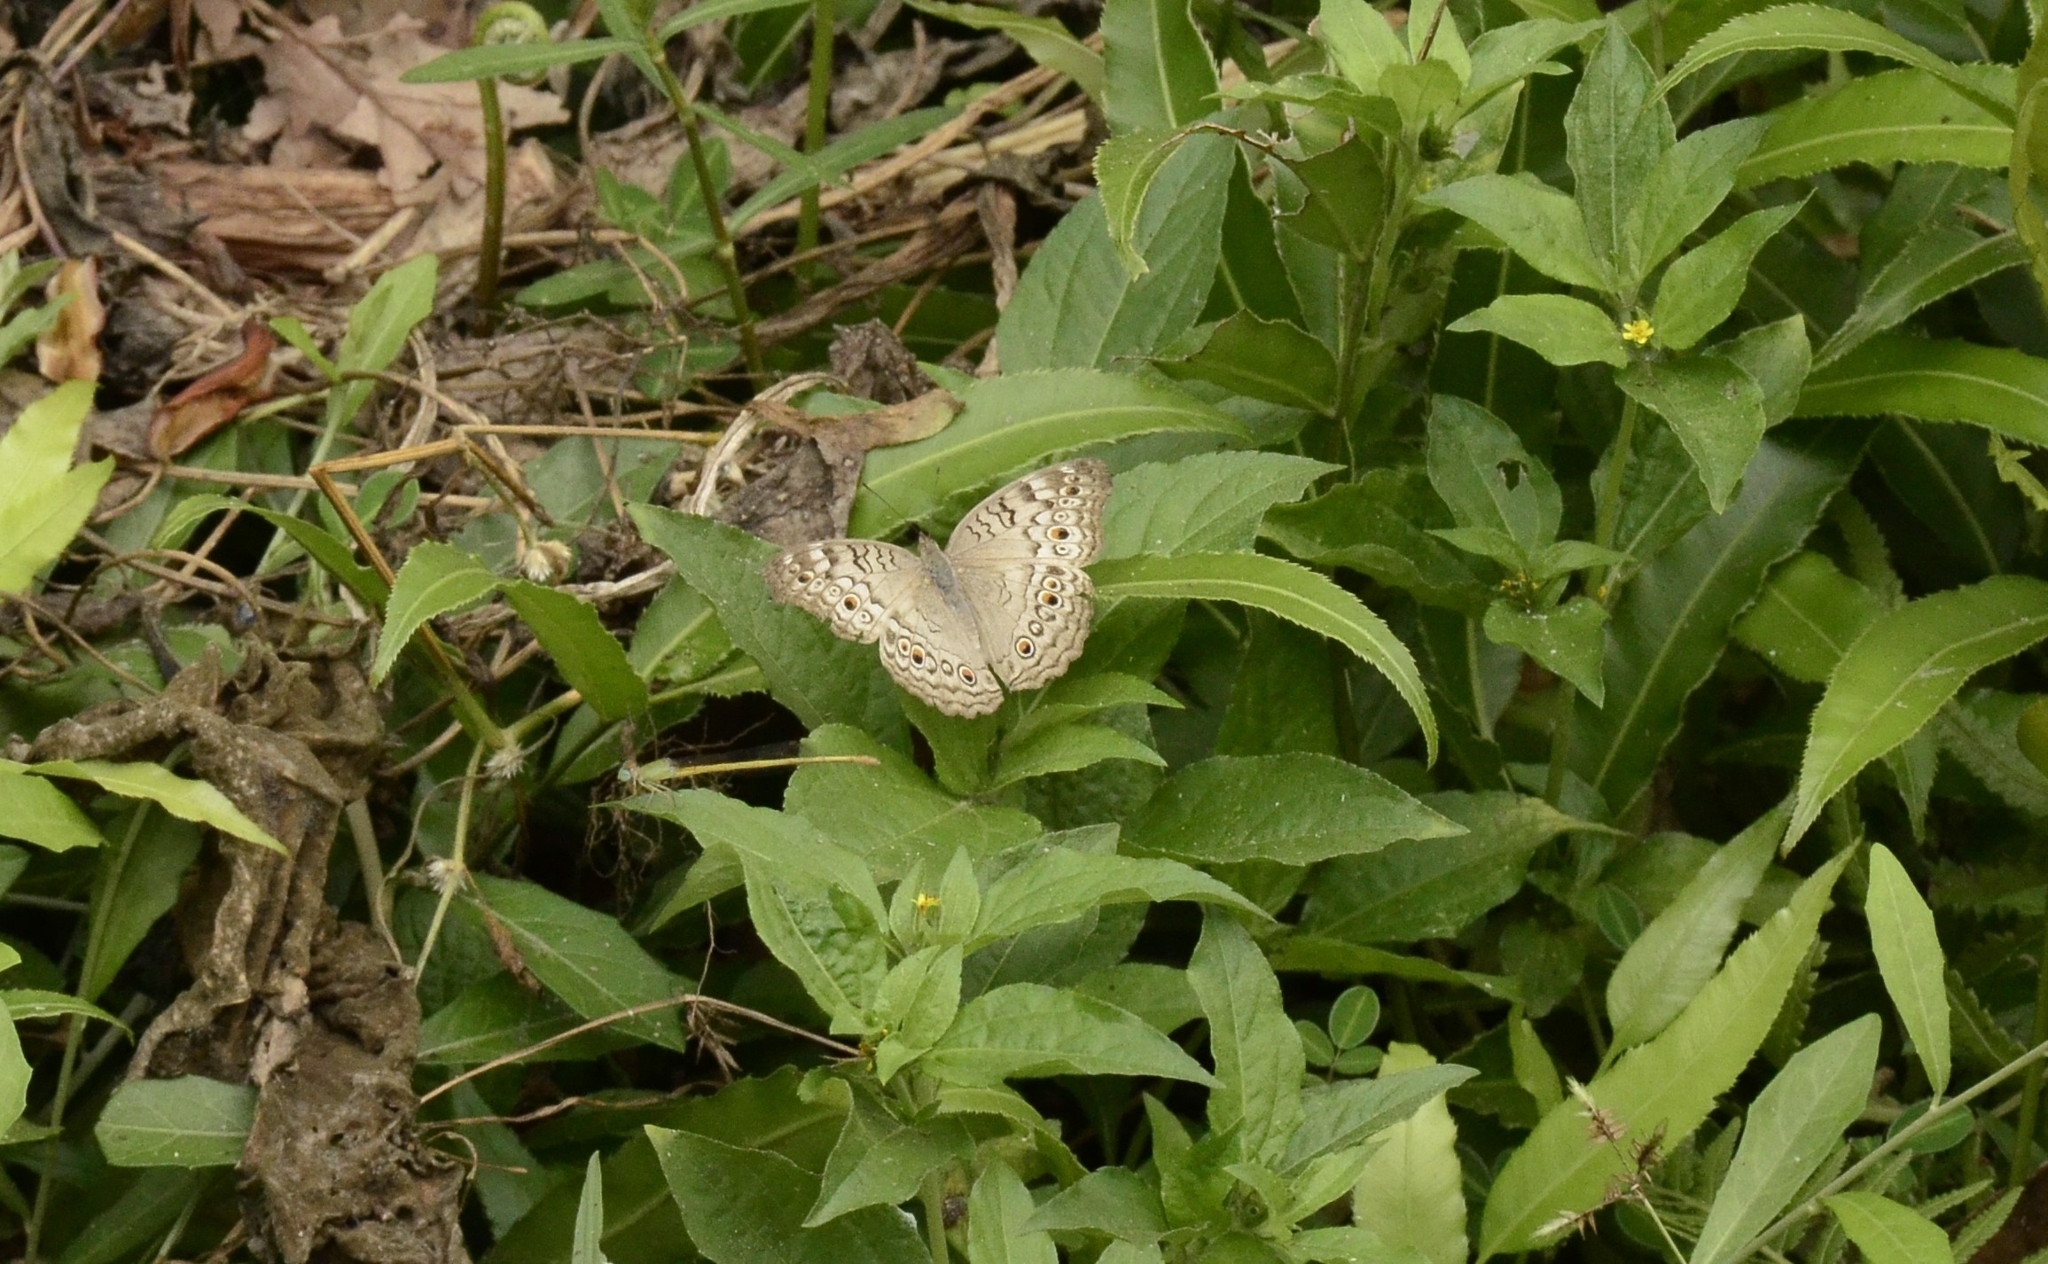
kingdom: Animalia
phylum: Arthropoda
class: Insecta
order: Lepidoptera
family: Nymphalidae
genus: Junonia
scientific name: Junonia atlites
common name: Grey pansy
